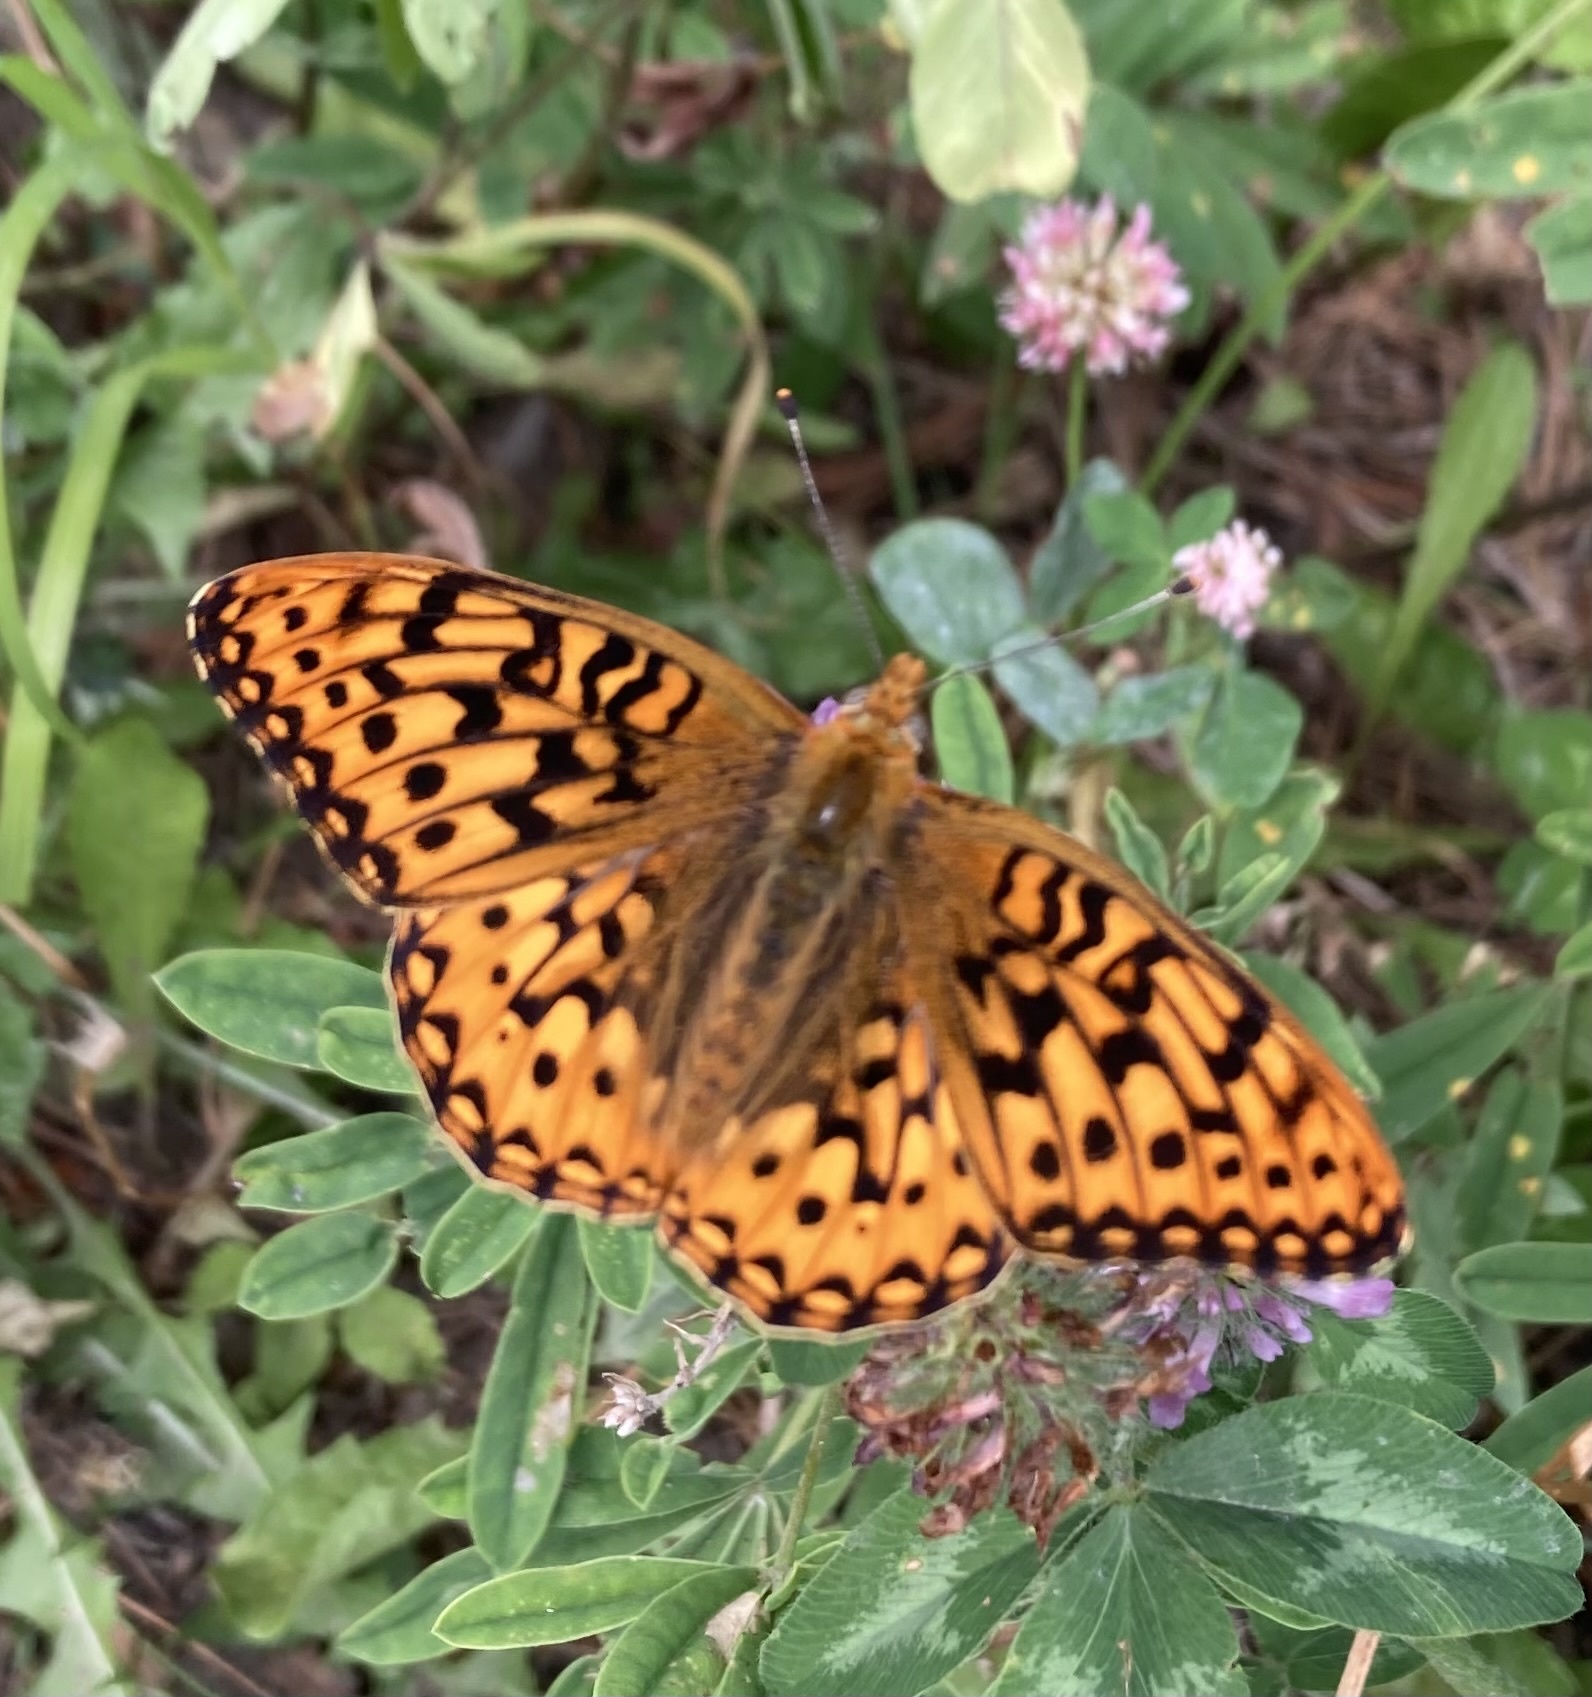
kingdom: Animalia
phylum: Arthropoda
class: Insecta
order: Lepidoptera
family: Nymphalidae
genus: Speyeria
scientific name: Speyeria callippe
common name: Callippe fritillary
